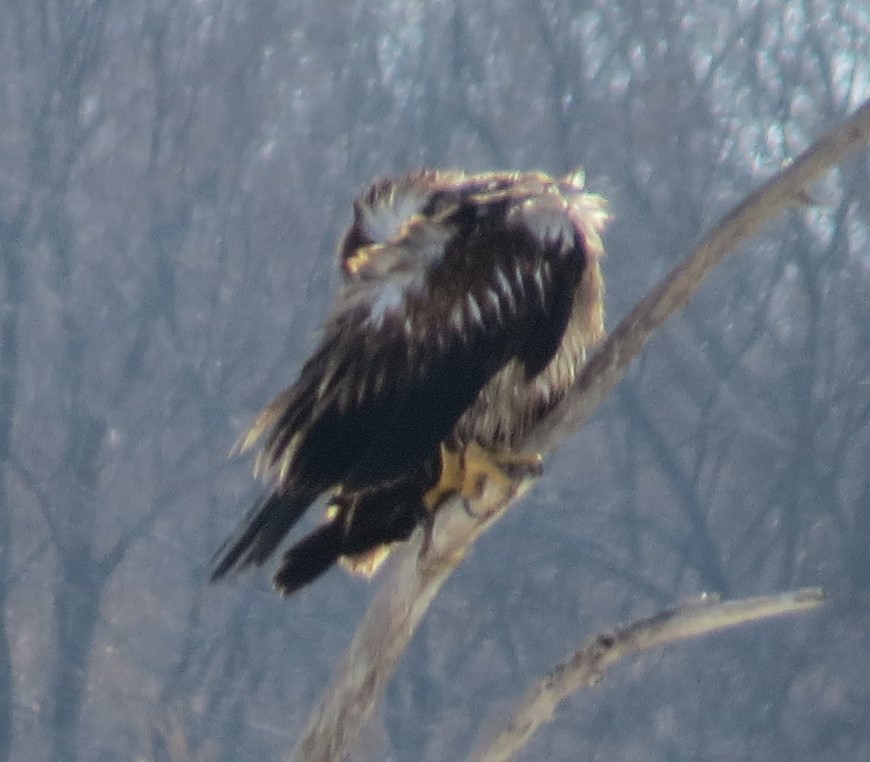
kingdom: Animalia
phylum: Chordata
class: Aves
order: Accipitriformes
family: Accipitridae
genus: Haliaeetus
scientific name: Haliaeetus leucocephalus
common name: Bald eagle
